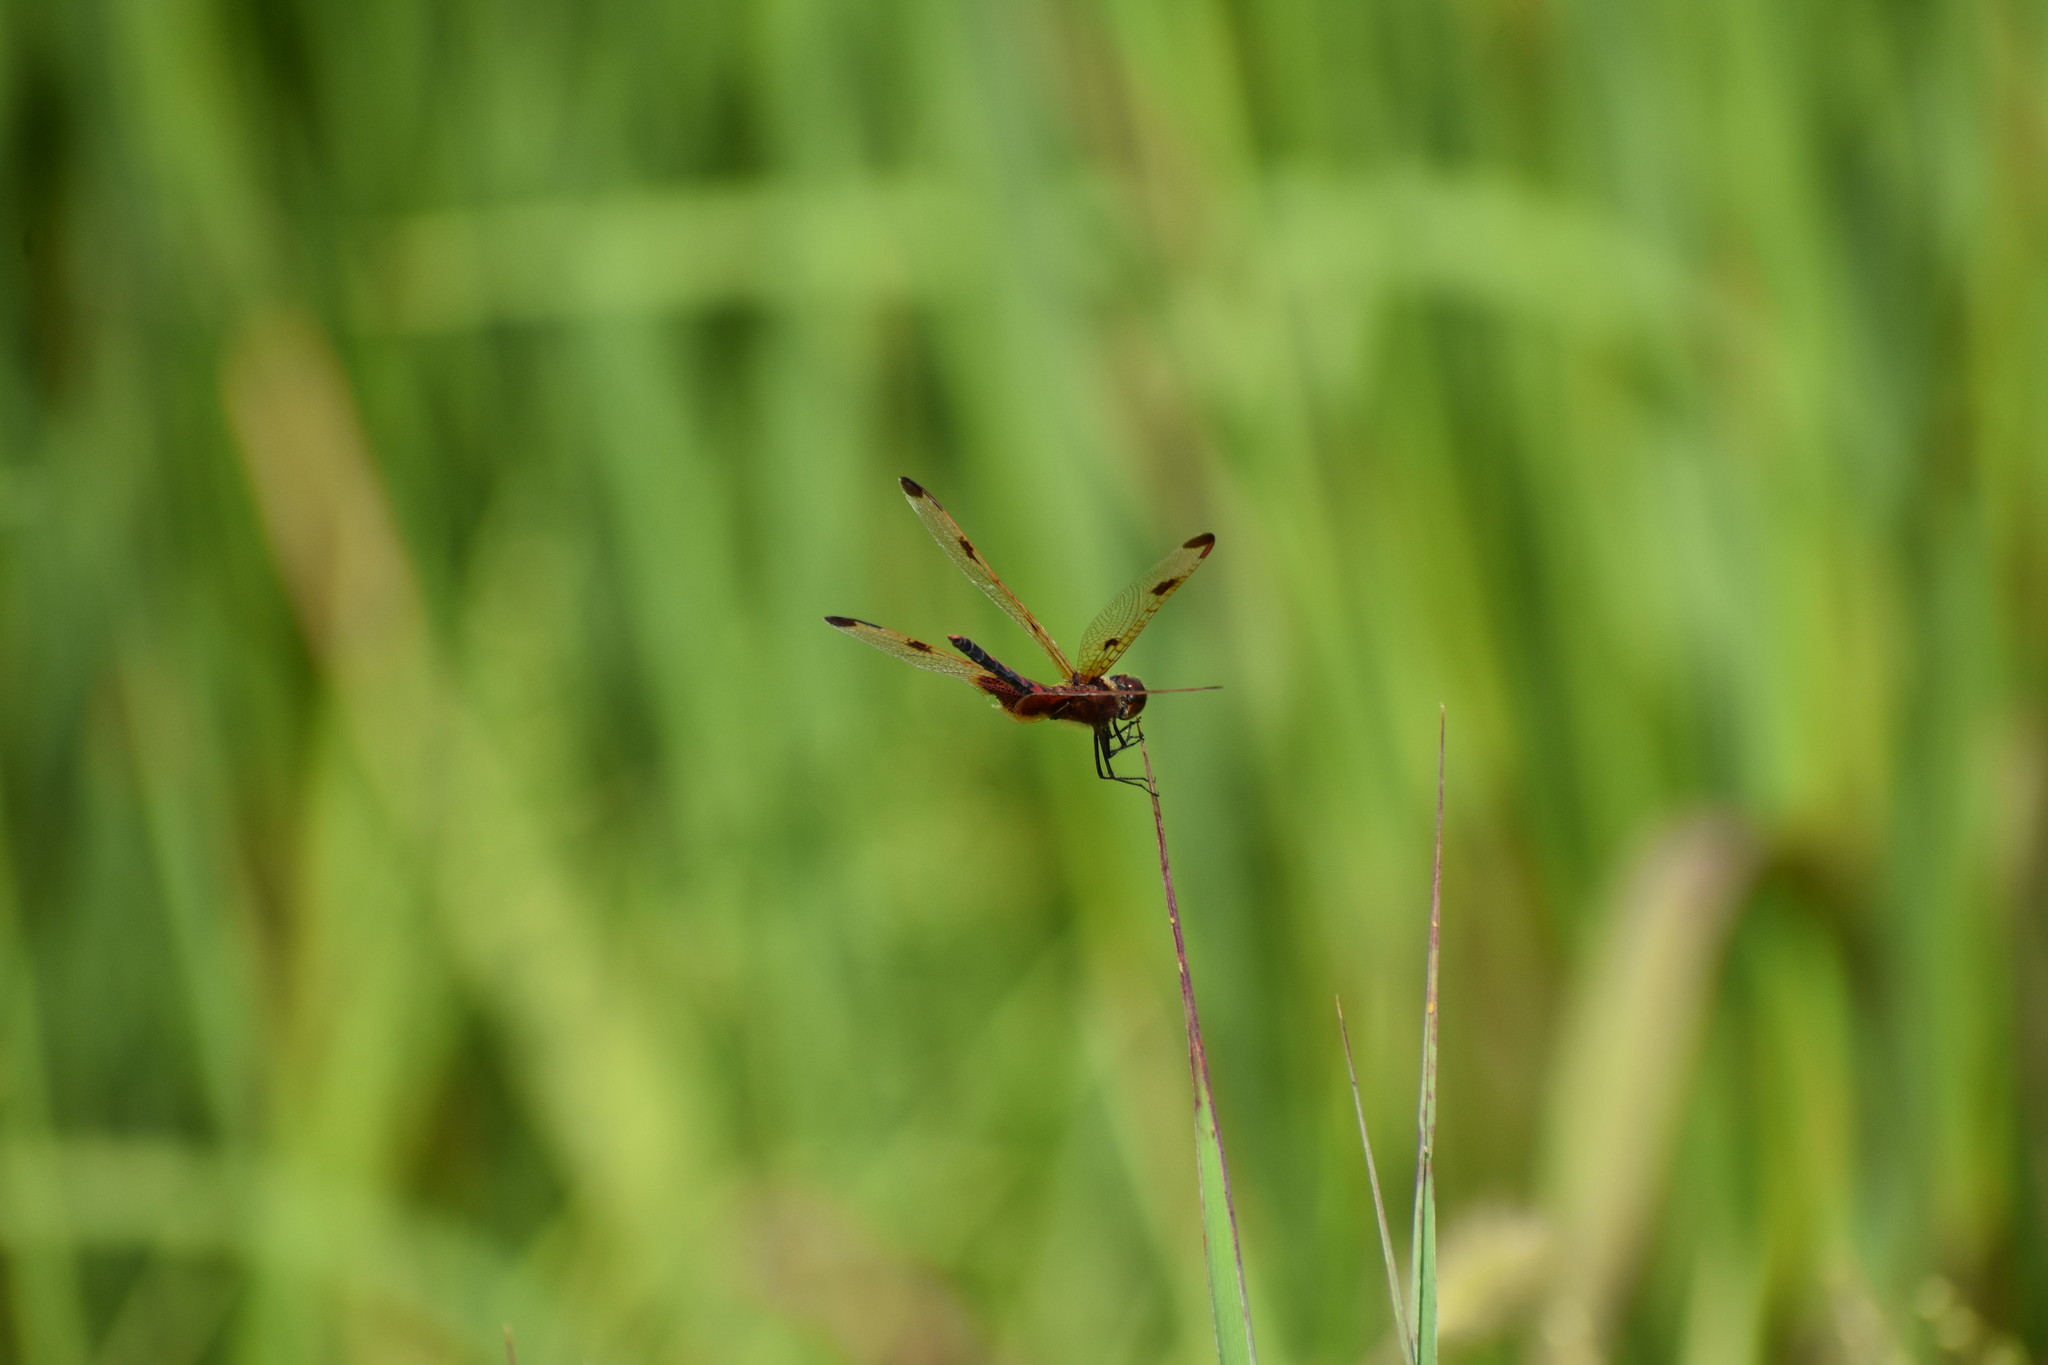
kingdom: Animalia
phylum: Arthropoda
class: Insecta
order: Odonata
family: Libellulidae
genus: Celithemis
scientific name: Celithemis elisa
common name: Calico pennant
